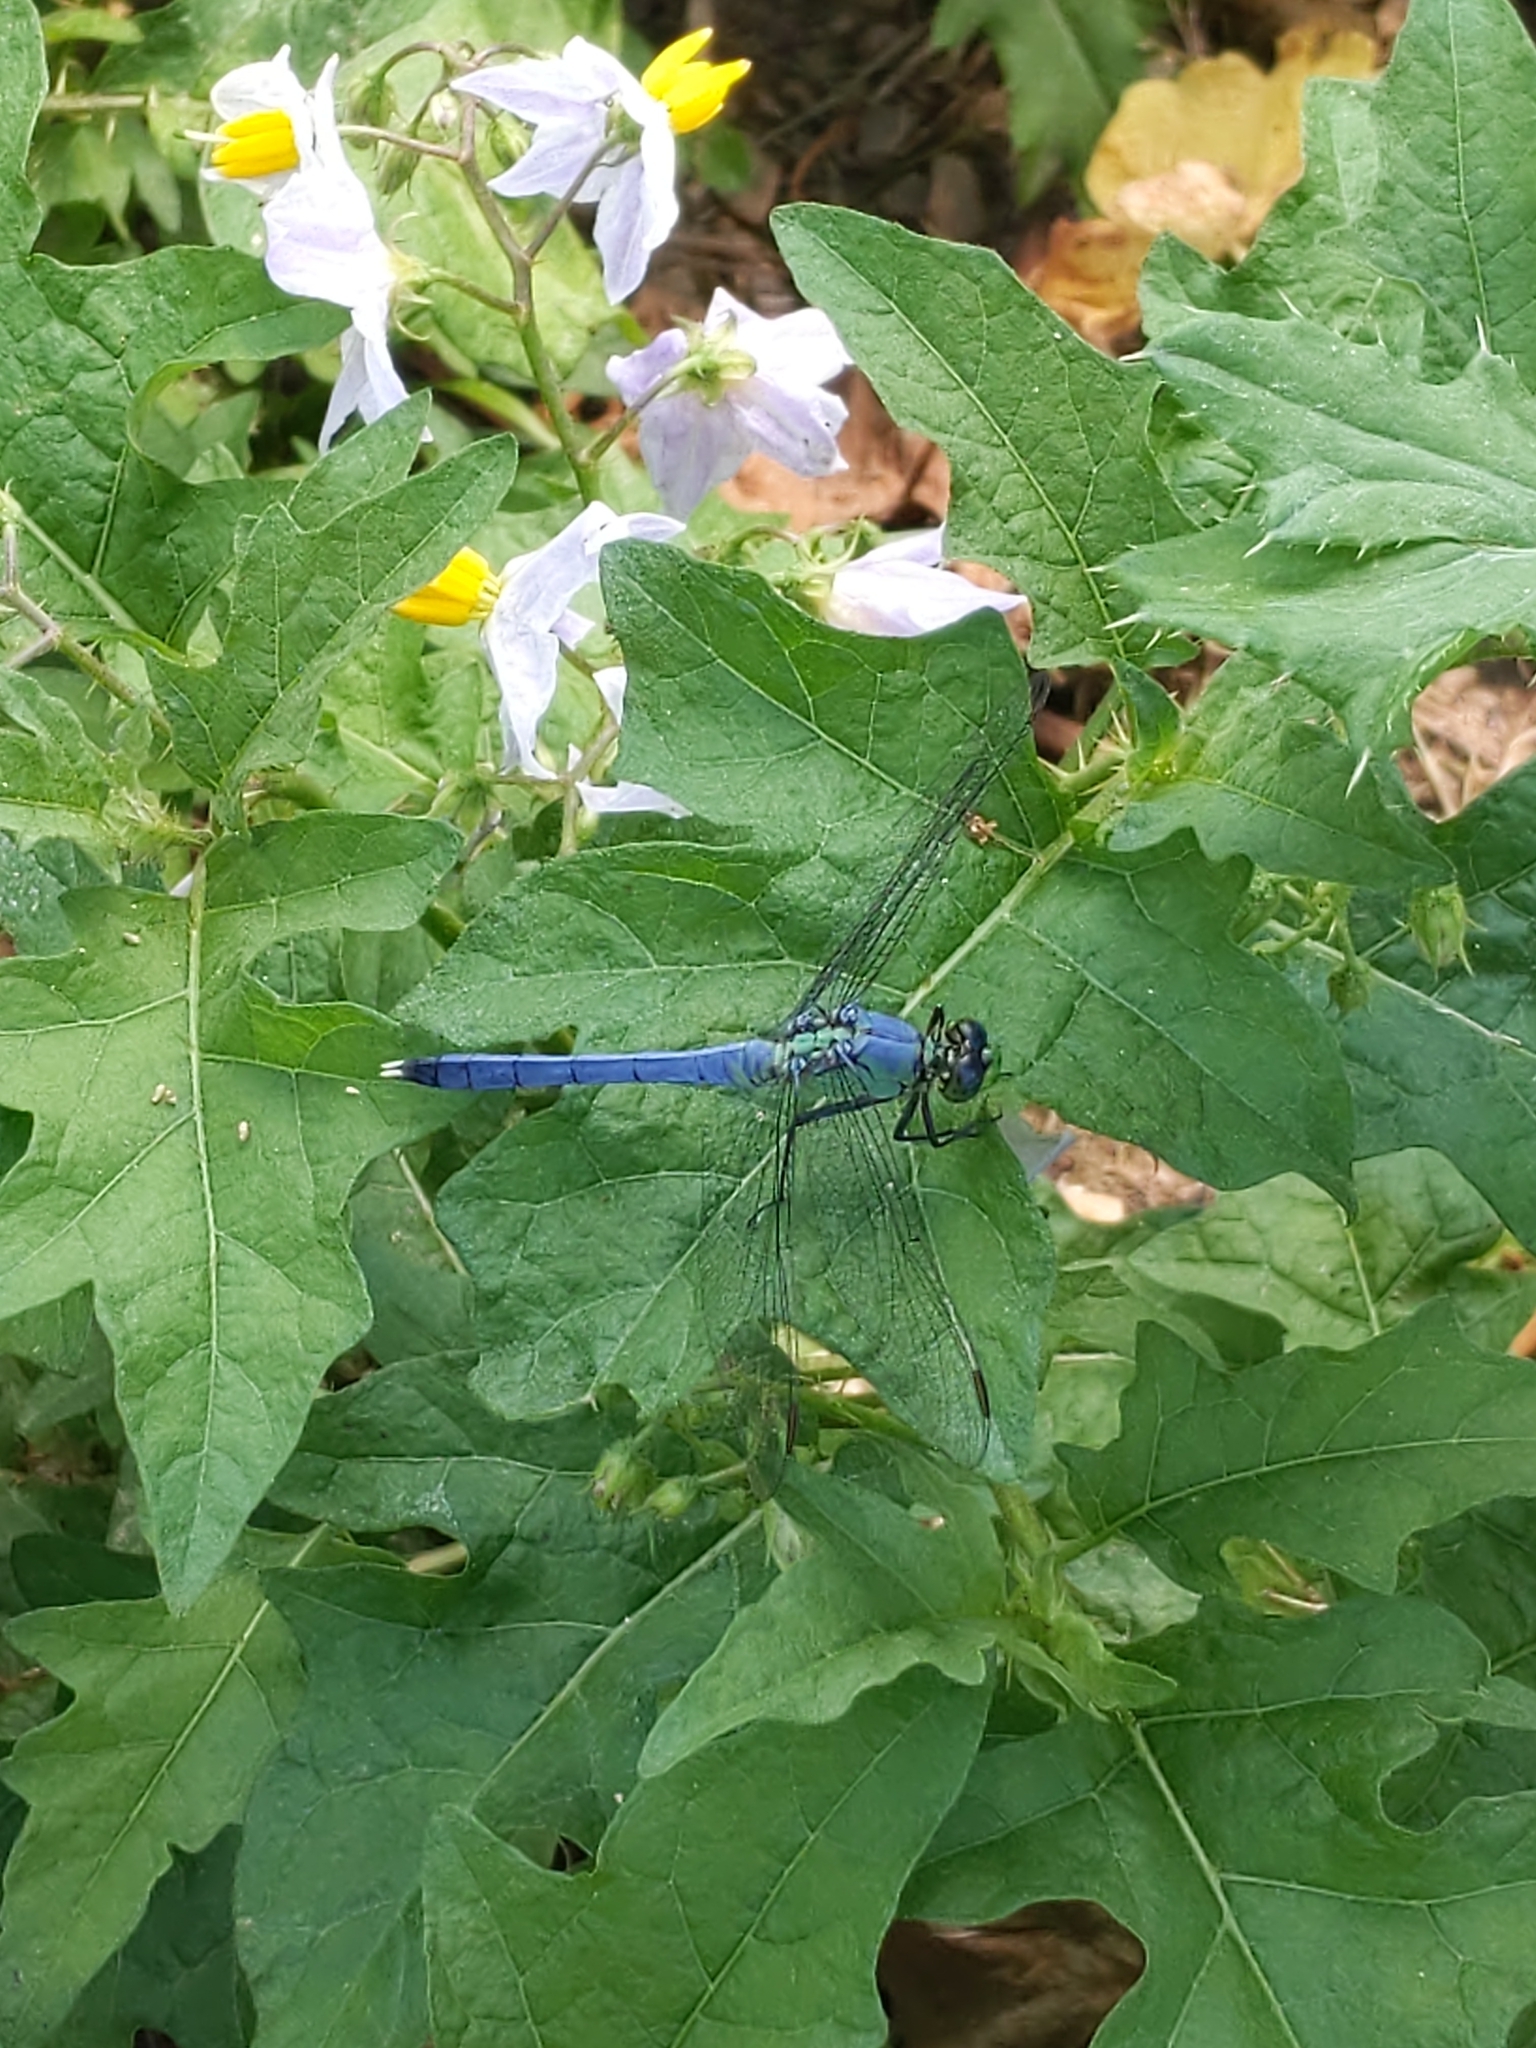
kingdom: Animalia
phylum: Arthropoda
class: Insecta
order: Odonata
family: Libellulidae
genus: Erythemis
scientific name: Erythemis simplicicollis
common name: Eastern pondhawk
